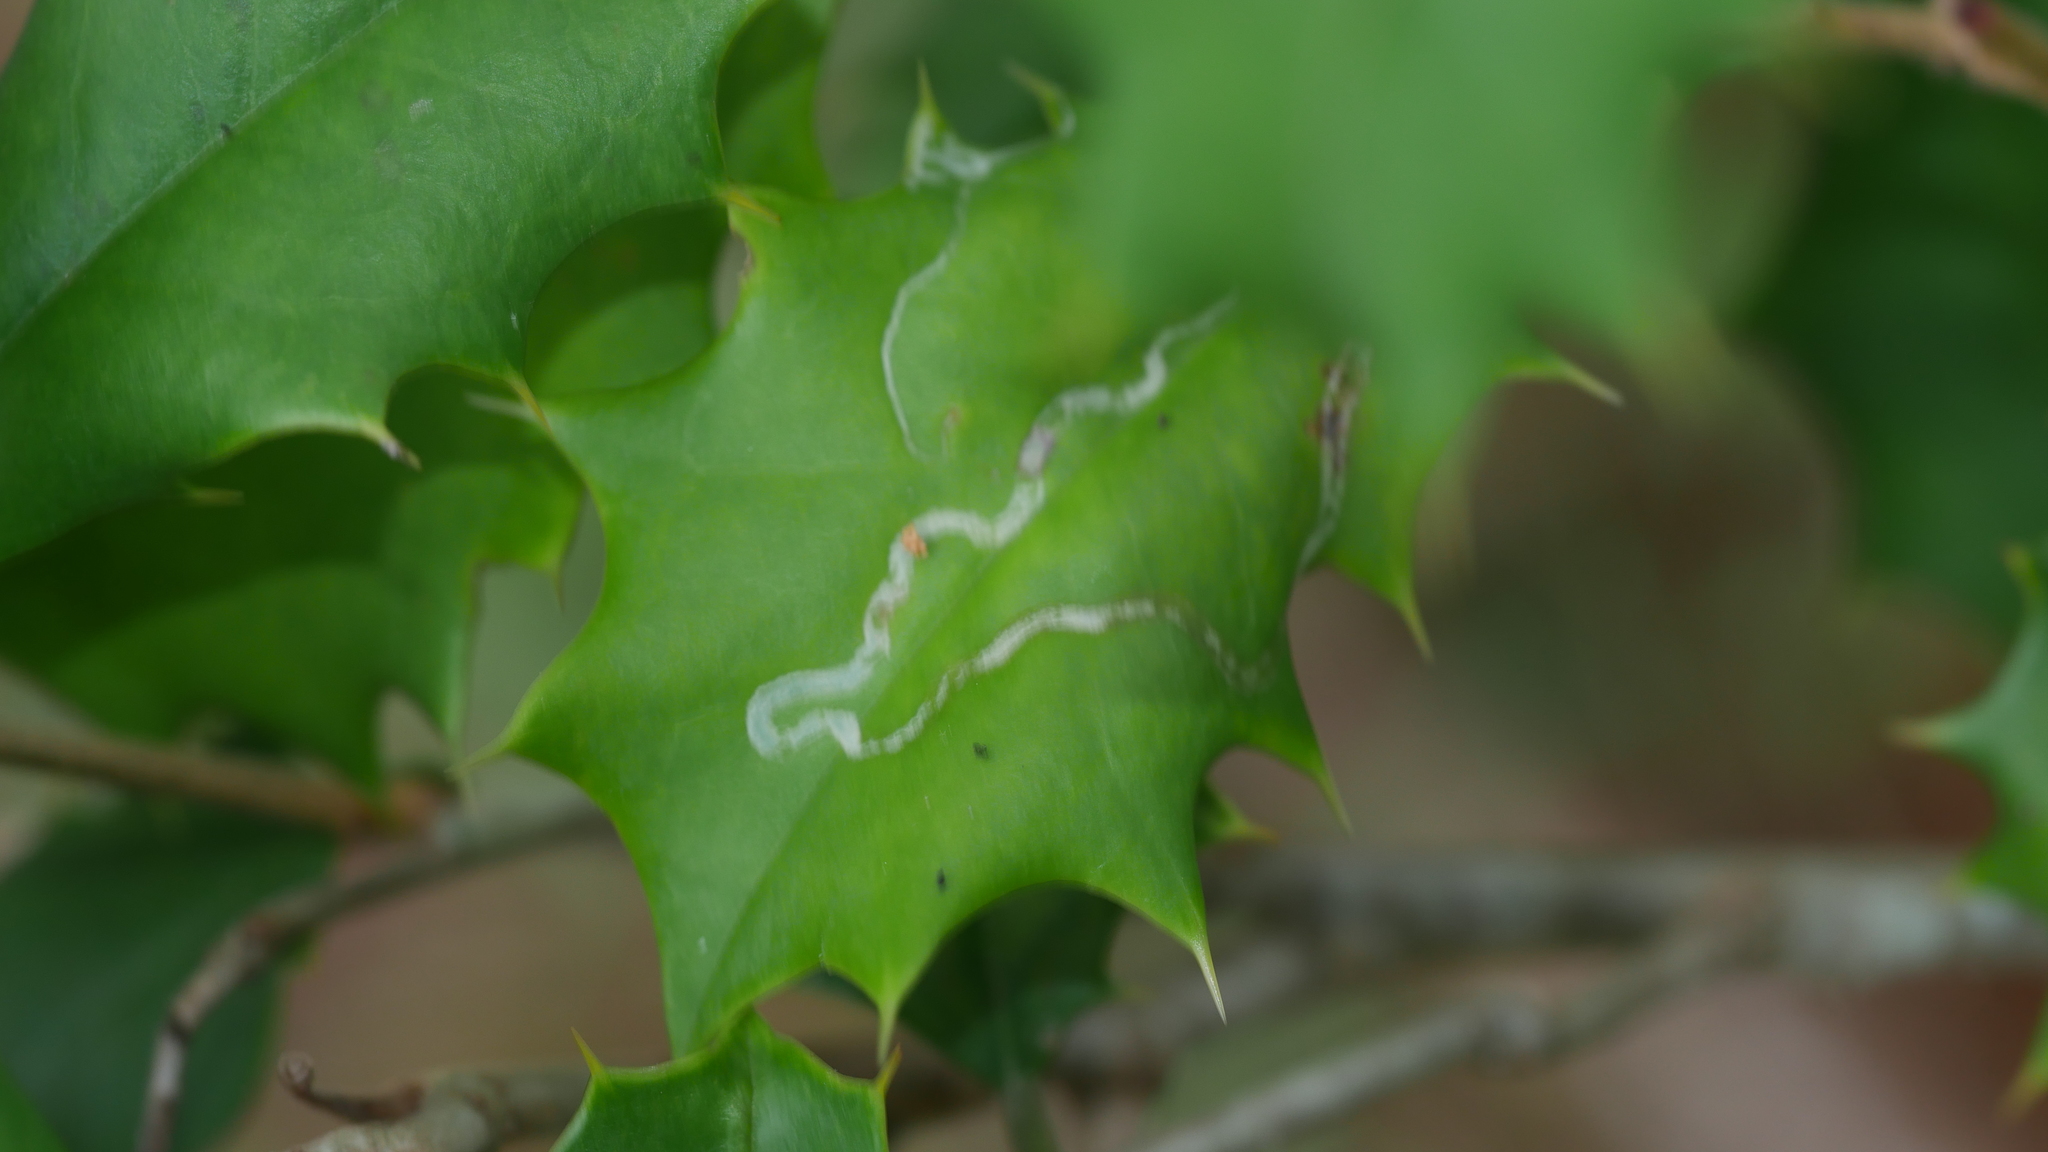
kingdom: Animalia
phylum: Arthropoda
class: Insecta
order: Diptera
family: Agromyzidae
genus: Phytomyza
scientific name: Phytomyza opacae
